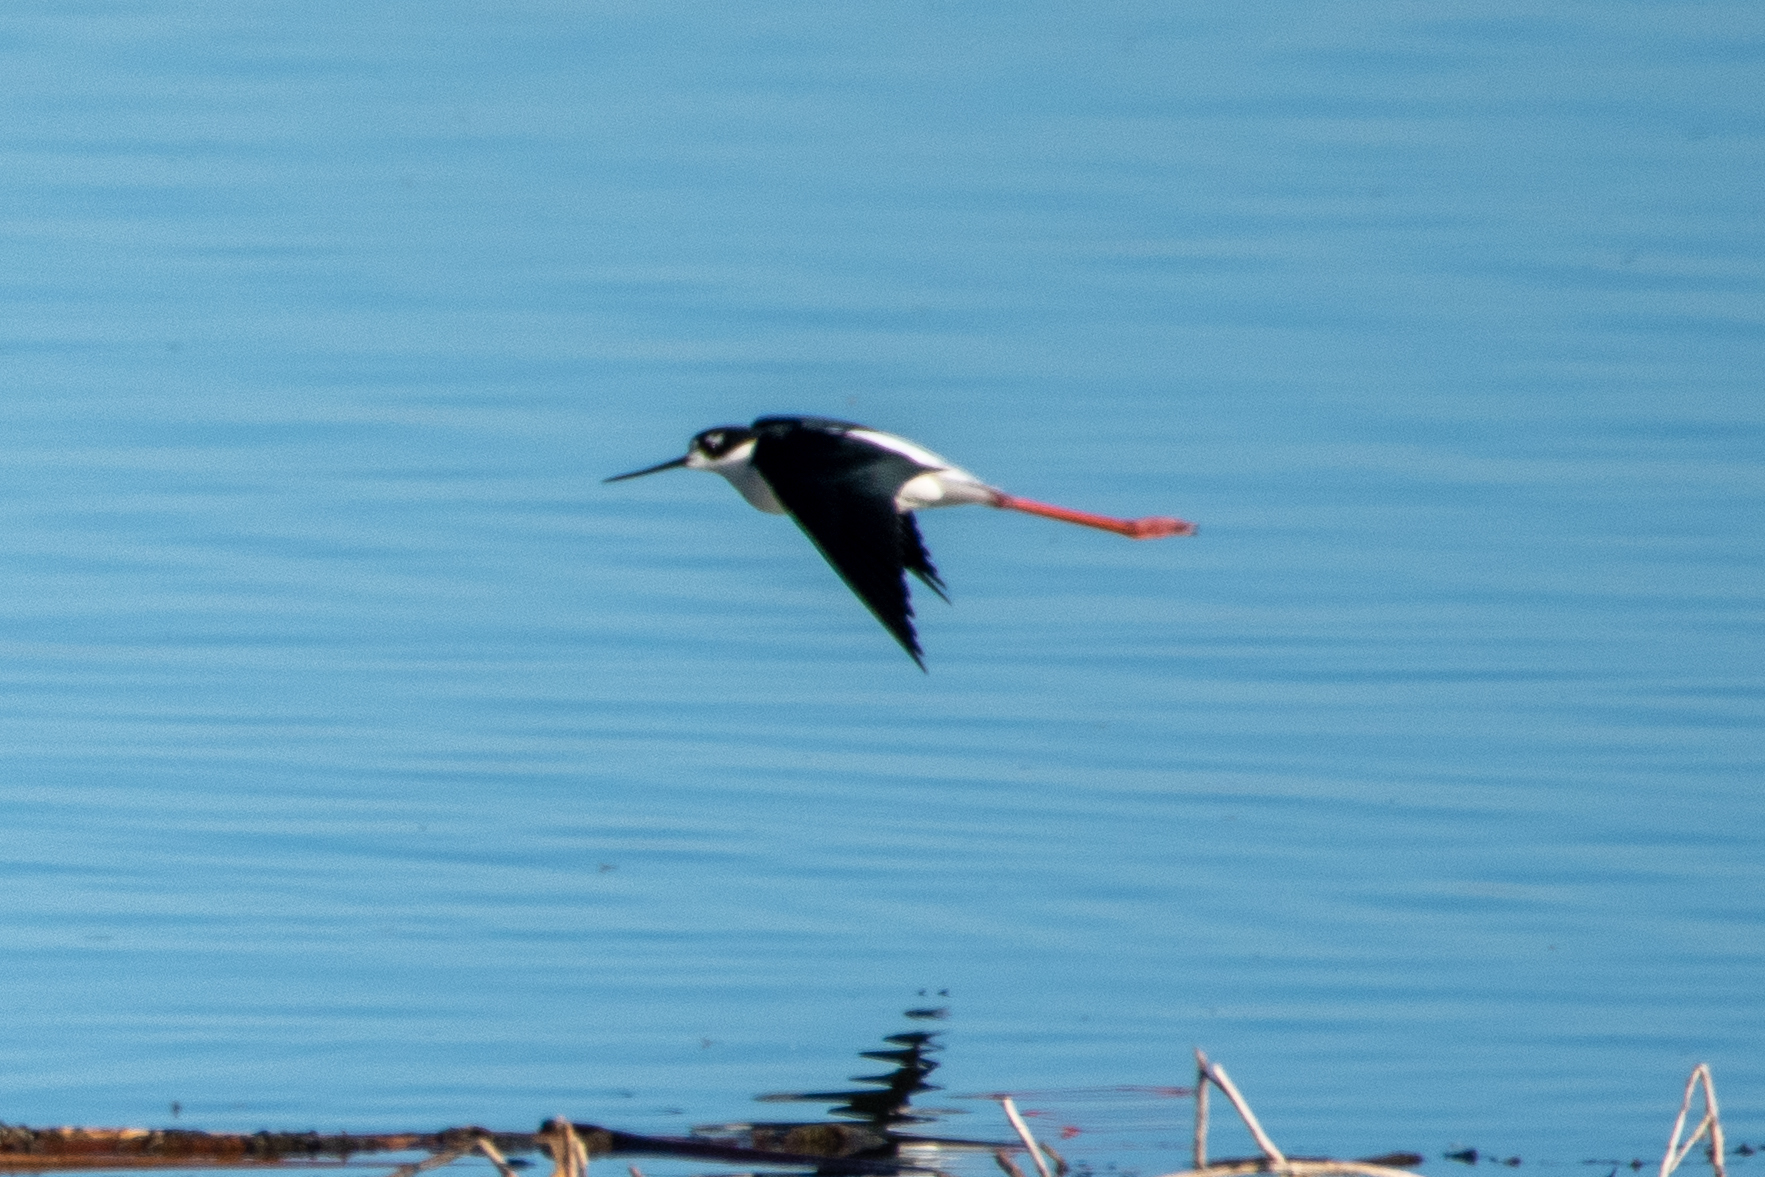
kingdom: Animalia
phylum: Chordata
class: Aves
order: Charadriiformes
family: Recurvirostridae
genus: Himantopus
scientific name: Himantopus mexicanus
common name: Black-necked stilt
